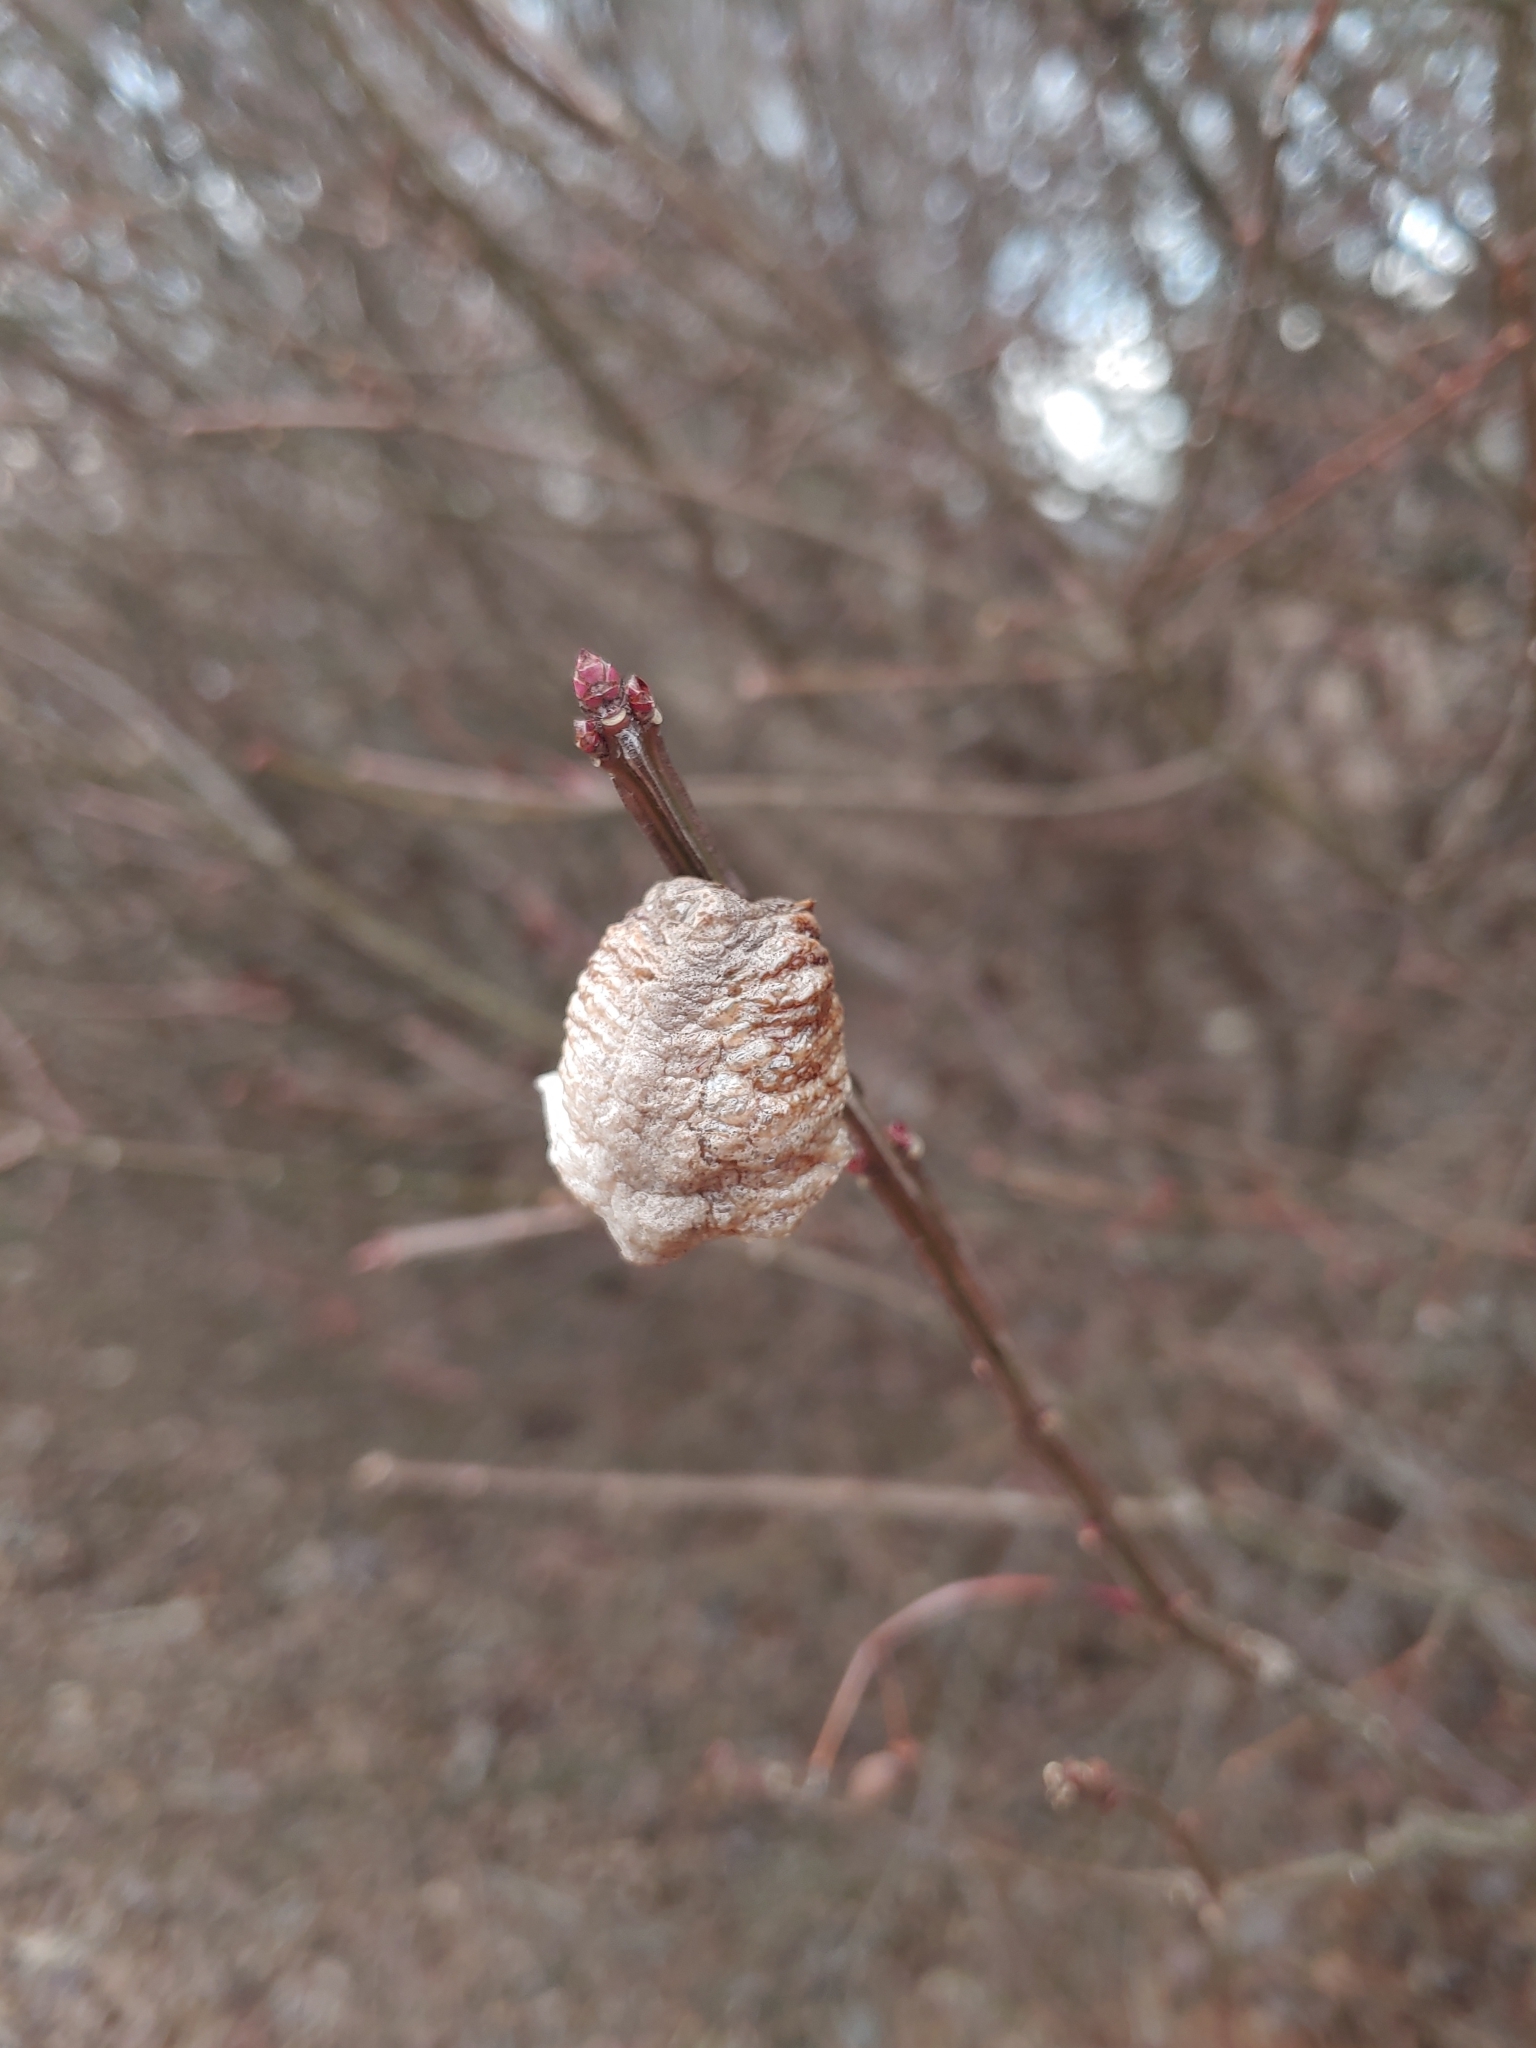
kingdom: Animalia
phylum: Arthropoda
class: Insecta
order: Mantodea
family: Mantidae
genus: Tenodera
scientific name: Tenodera sinensis
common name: Chinese mantis
